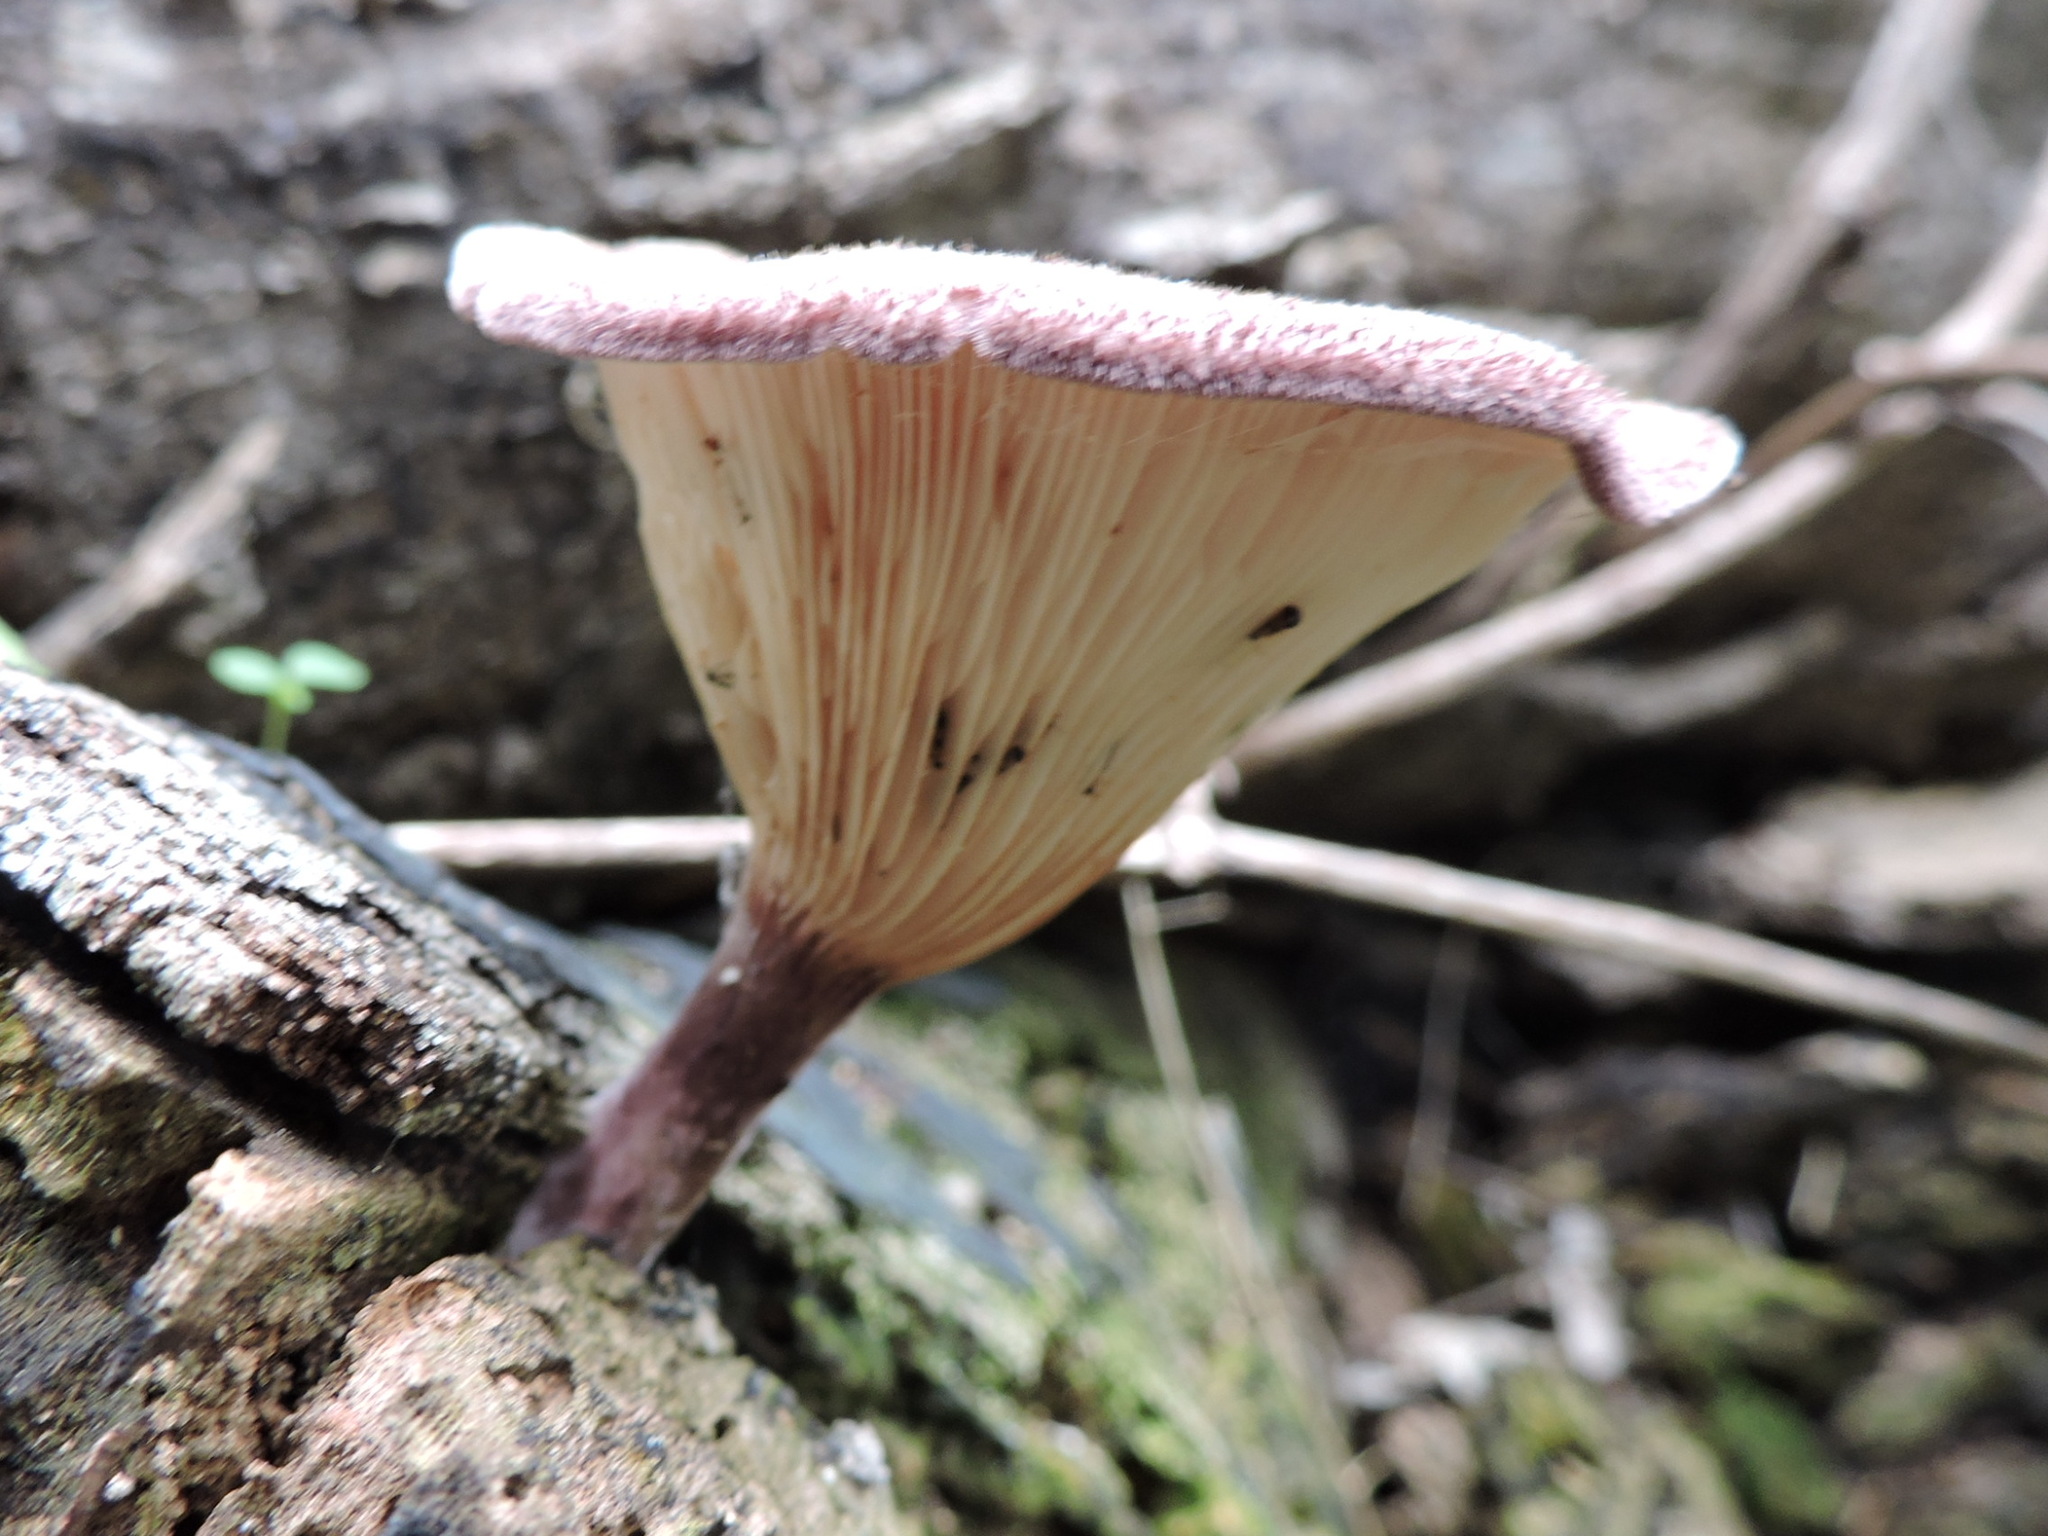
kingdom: Fungi
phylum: Basidiomycota
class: Agaricomycetes
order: Polyporales
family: Panaceae
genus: Panus
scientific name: Panus neostrigosus
